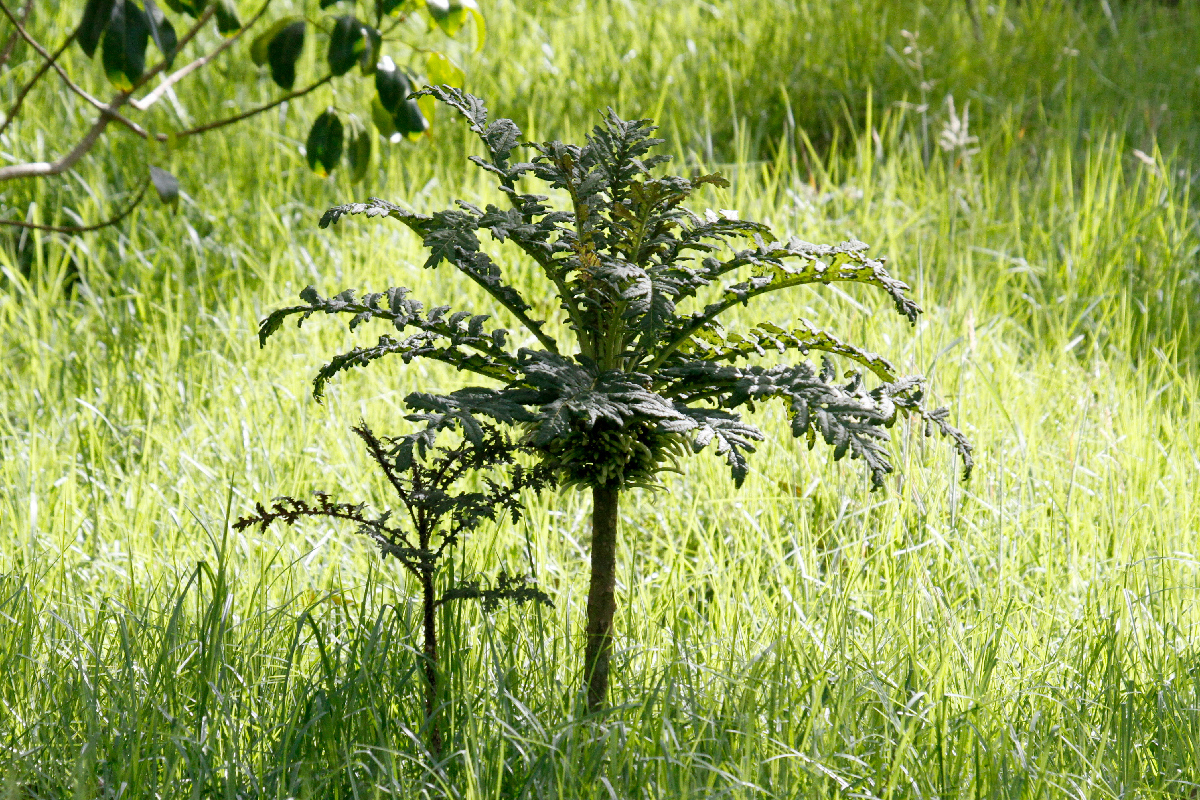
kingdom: Plantae
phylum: Tracheophyta
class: Magnoliopsida
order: Asterales
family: Campanulaceae
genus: Cyanea
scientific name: Cyanea shipmanii
